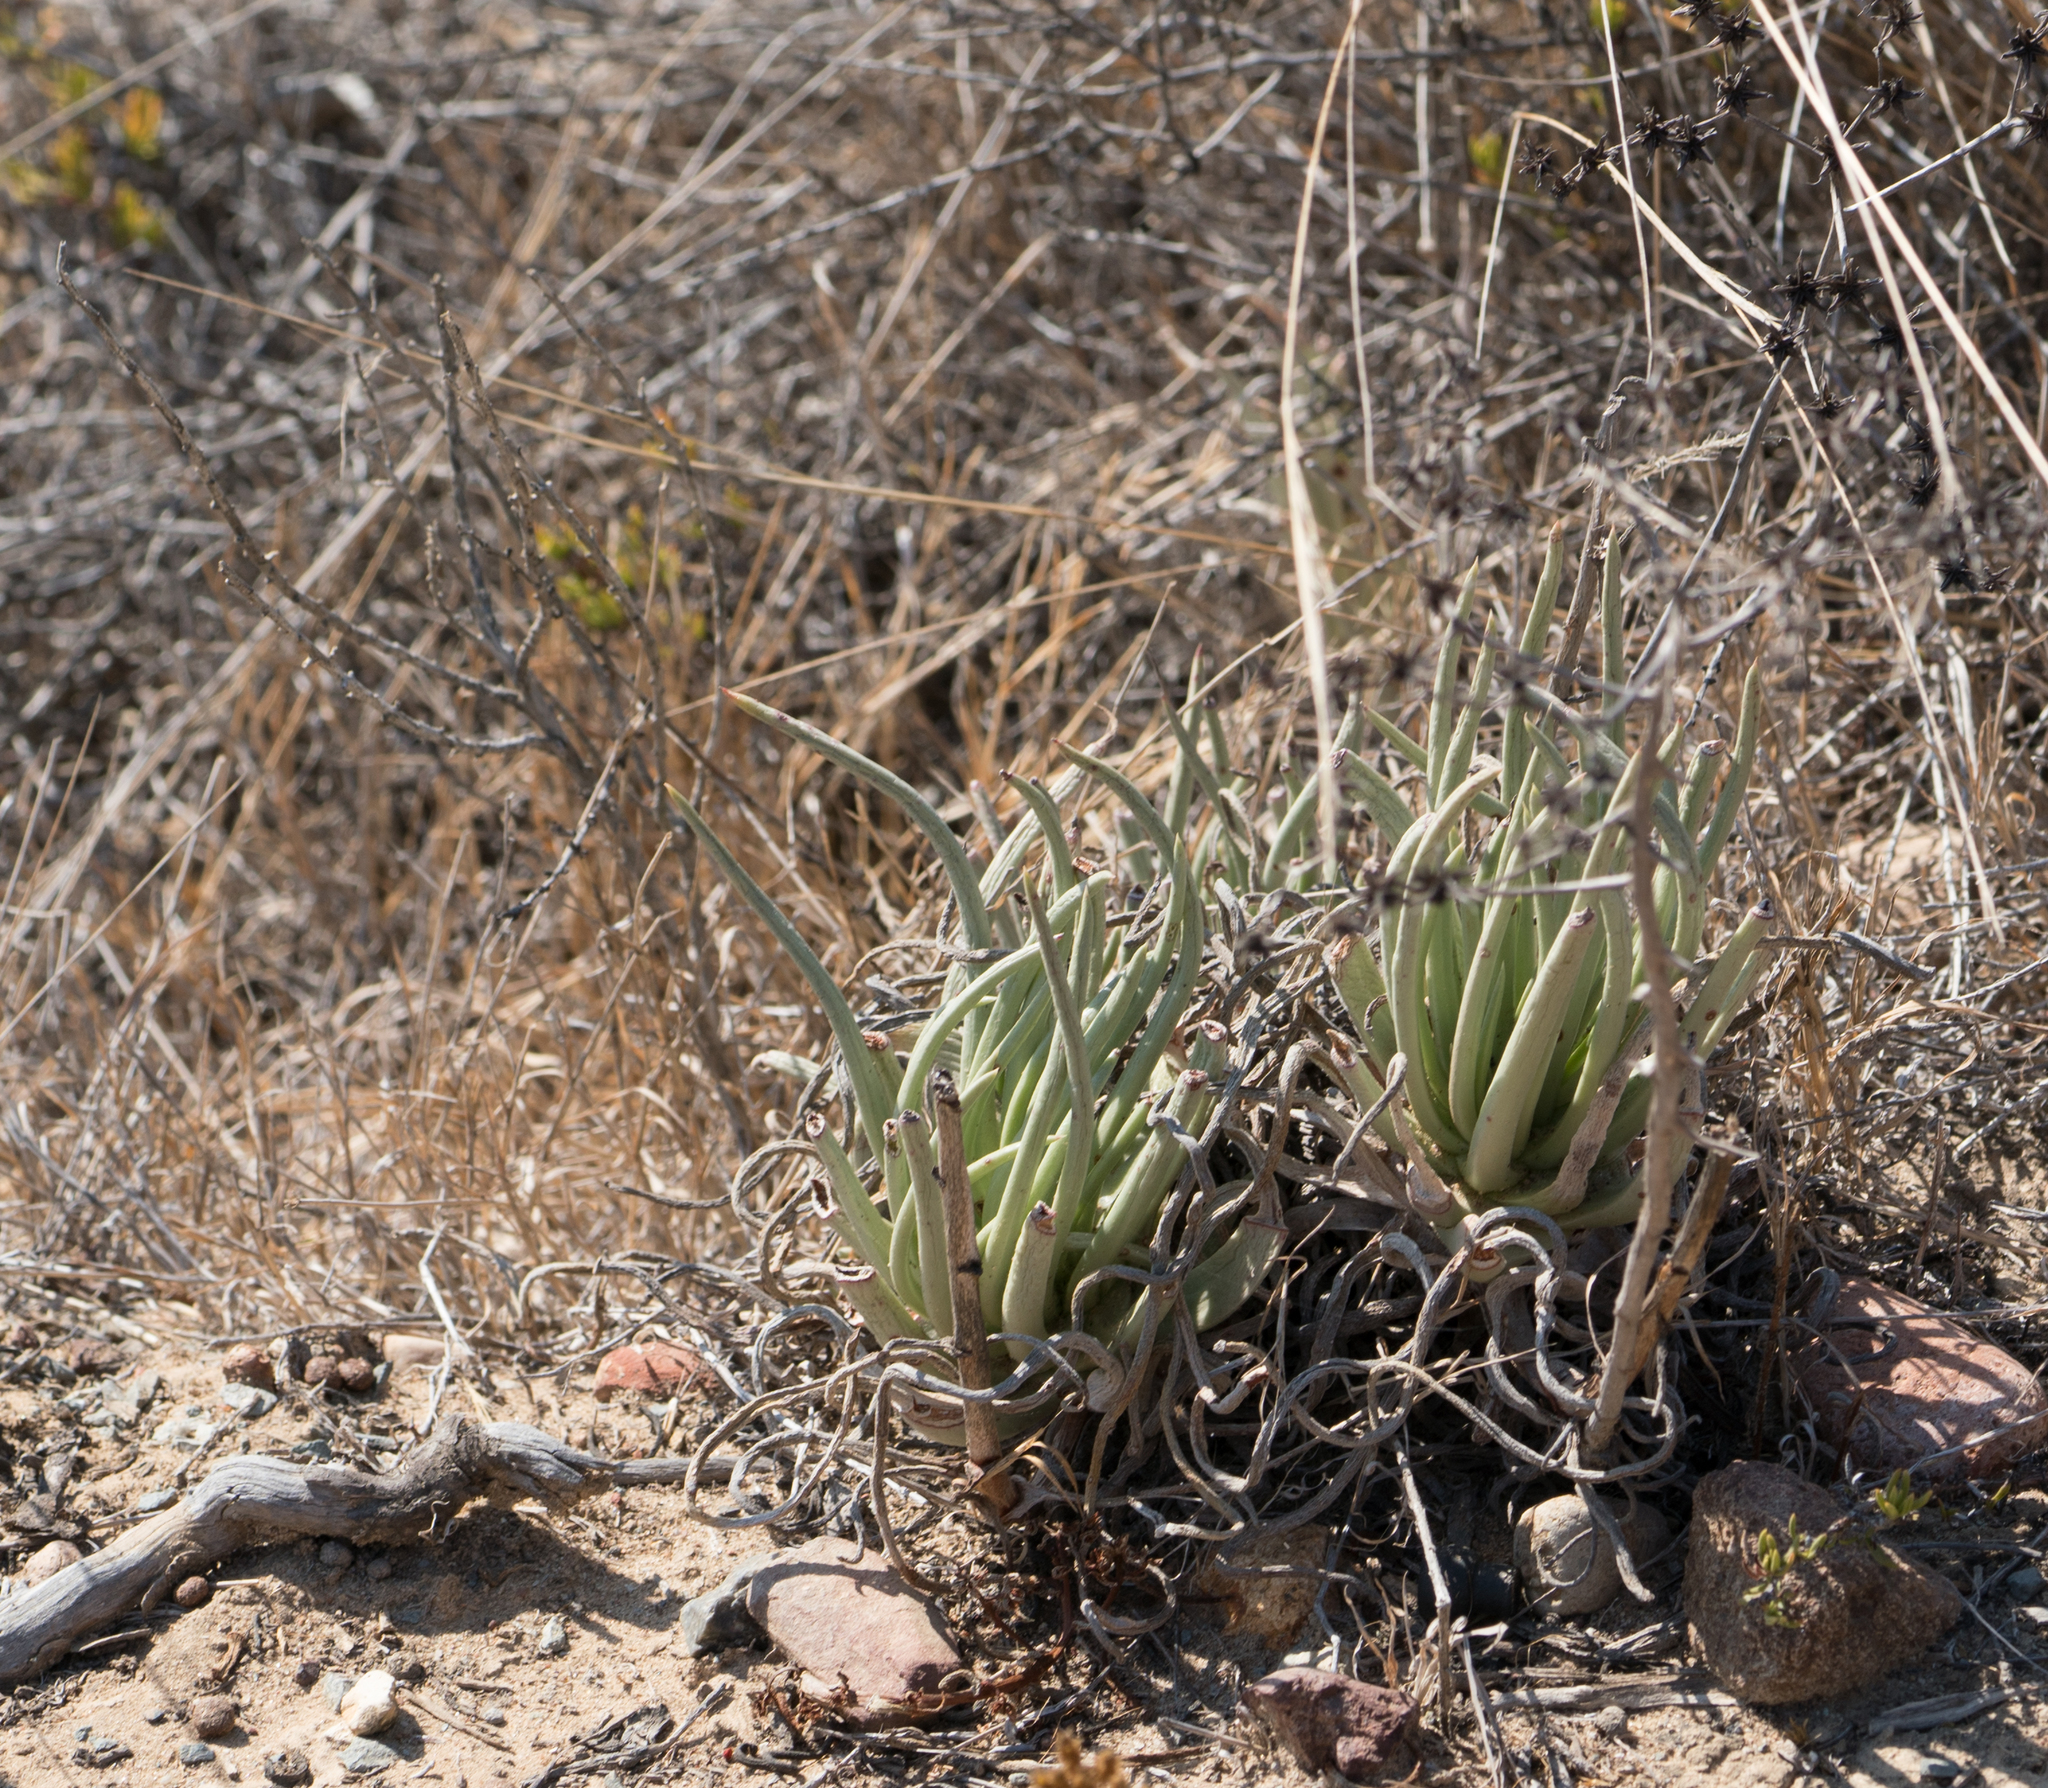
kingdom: Plantae
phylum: Tracheophyta
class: Magnoliopsida
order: Saxifragales
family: Crassulaceae
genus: Dudleya
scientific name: Dudleya edulis
